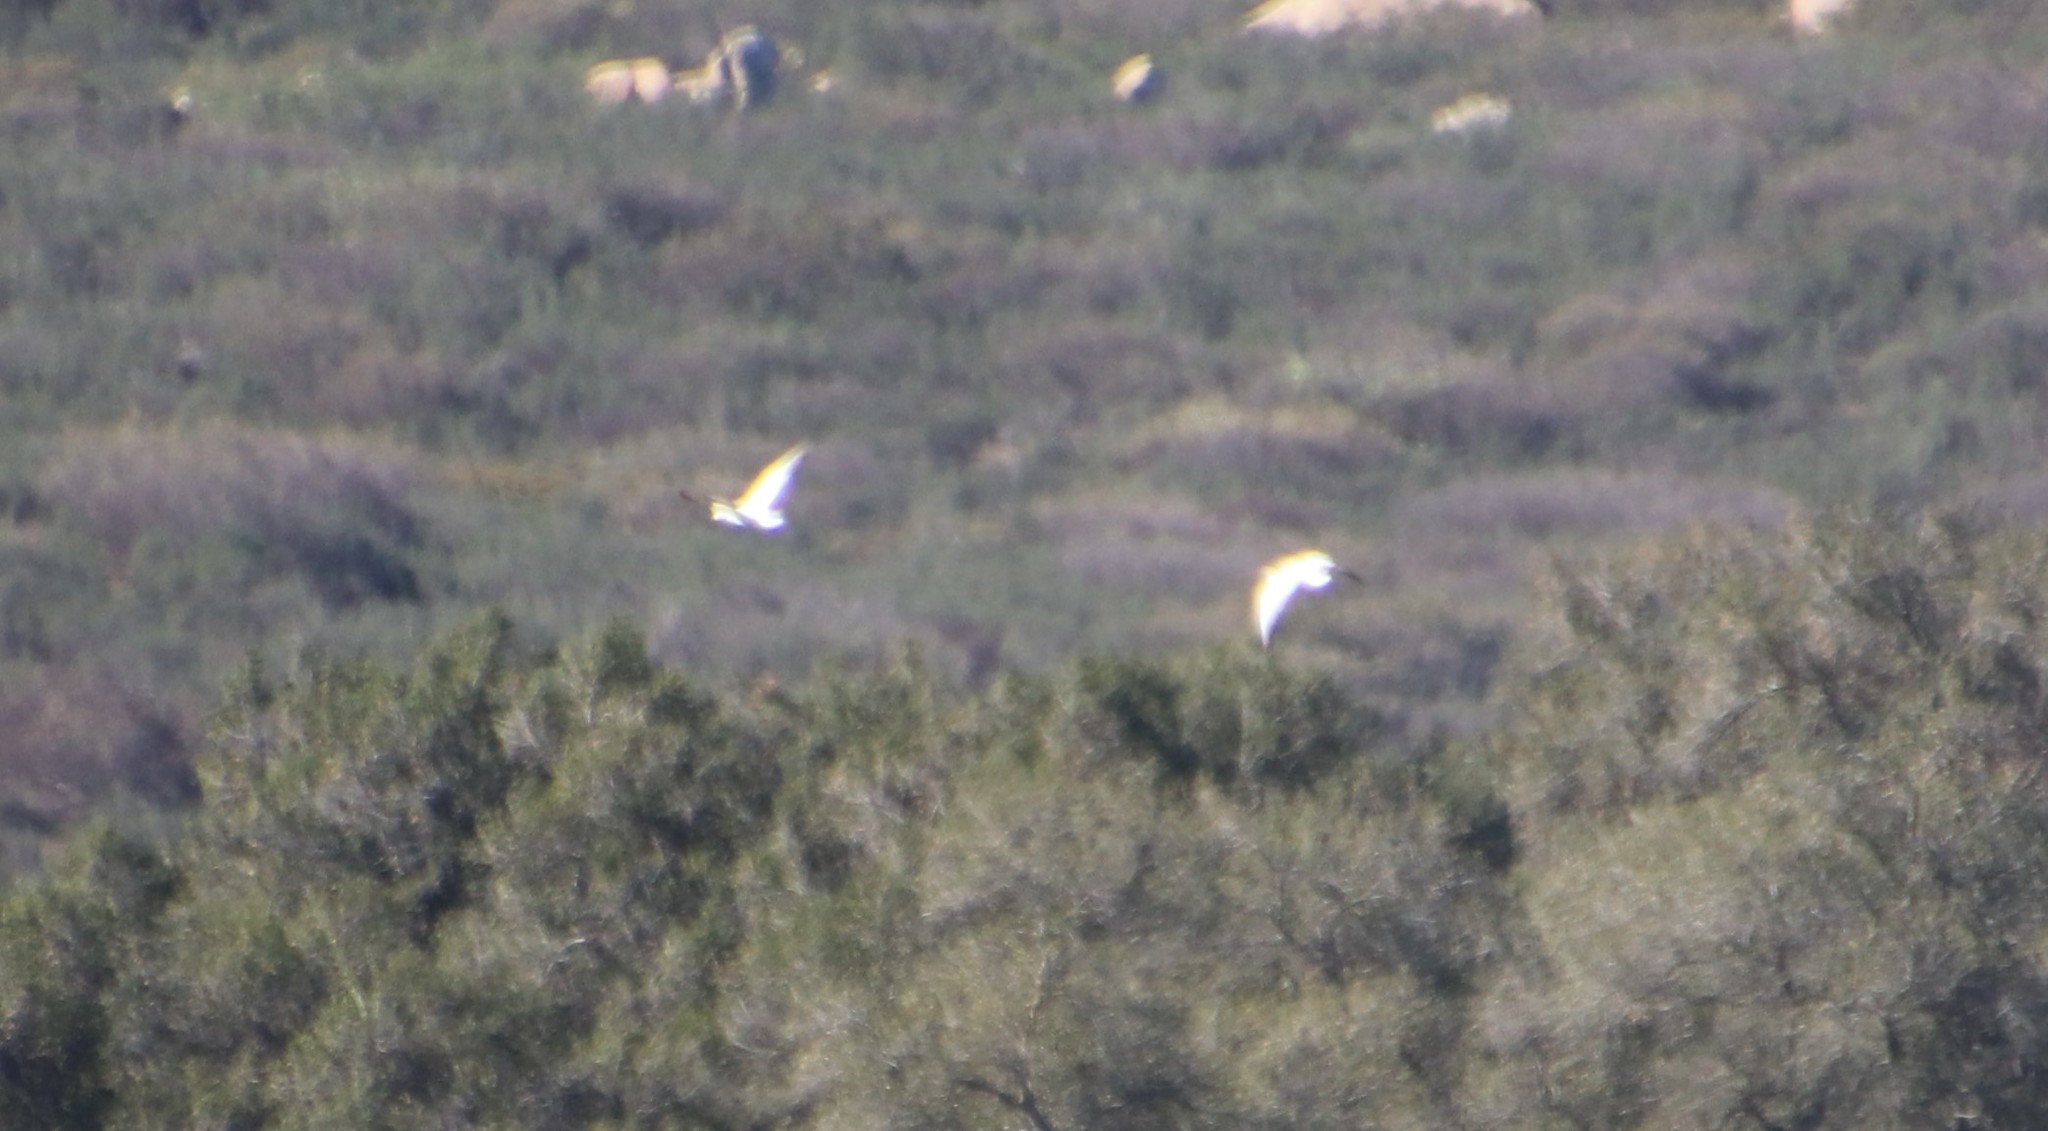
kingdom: Animalia
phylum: Chordata
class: Aves
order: Anseriformes
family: Anatidae
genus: Anser
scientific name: Anser caerulescens
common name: Snow goose
